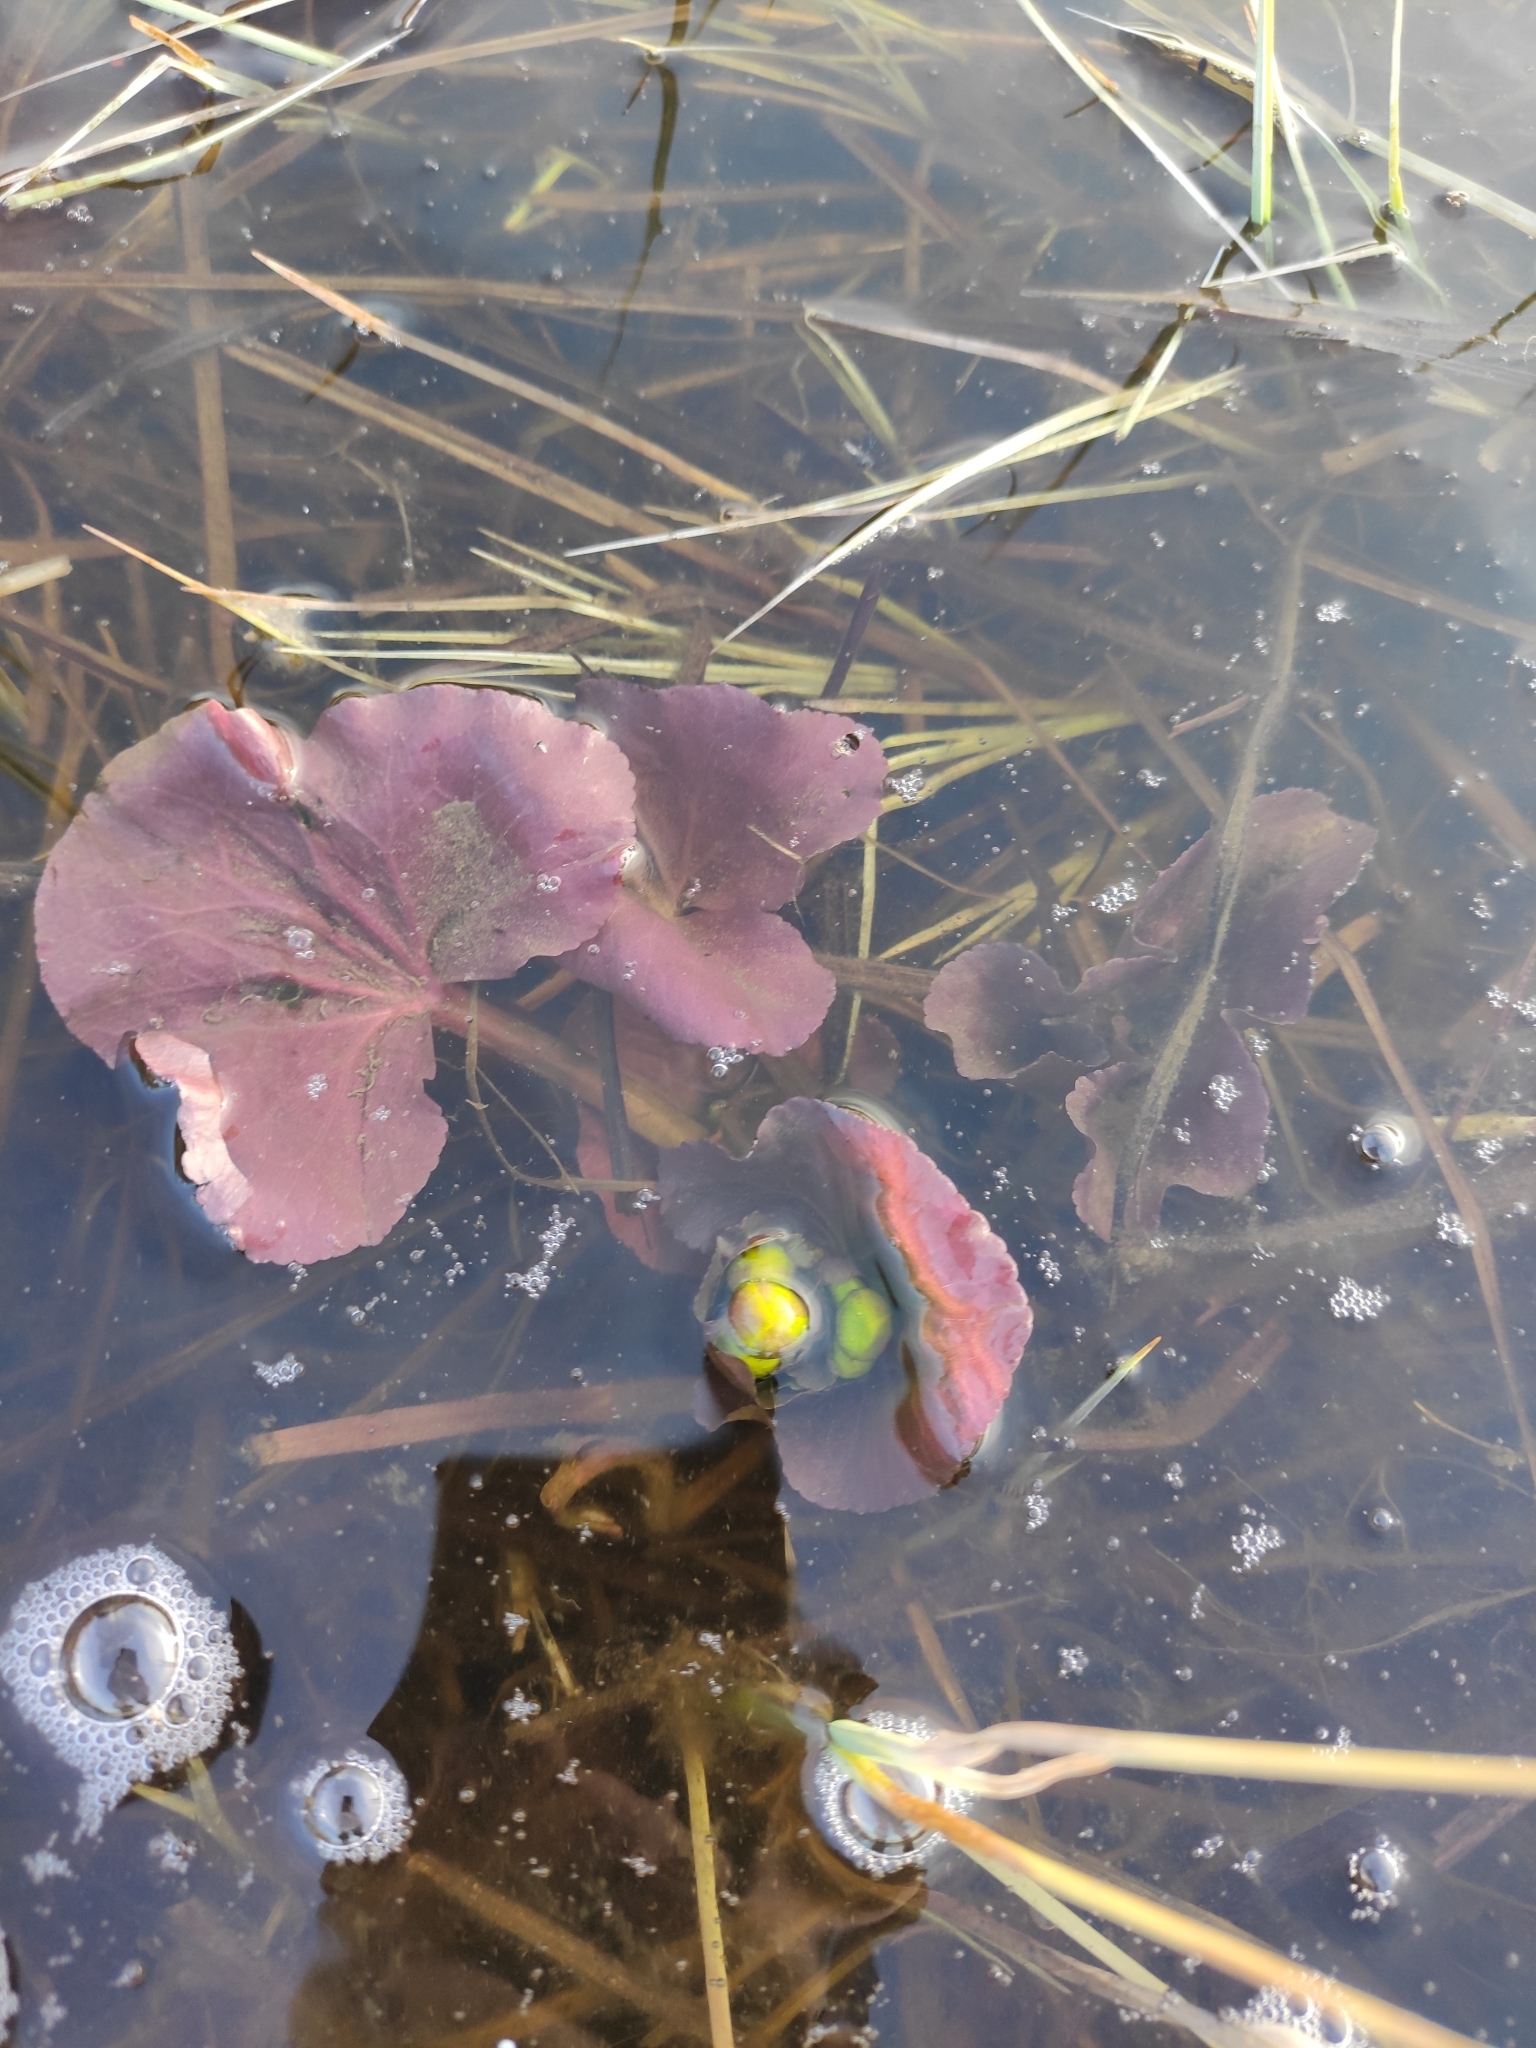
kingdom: Plantae
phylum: Tracheophyta
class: Magnoliopsida
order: Ranunculales
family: Ranunculaceae
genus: Caltha
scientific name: Caltha palustris
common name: Marsh marigold
